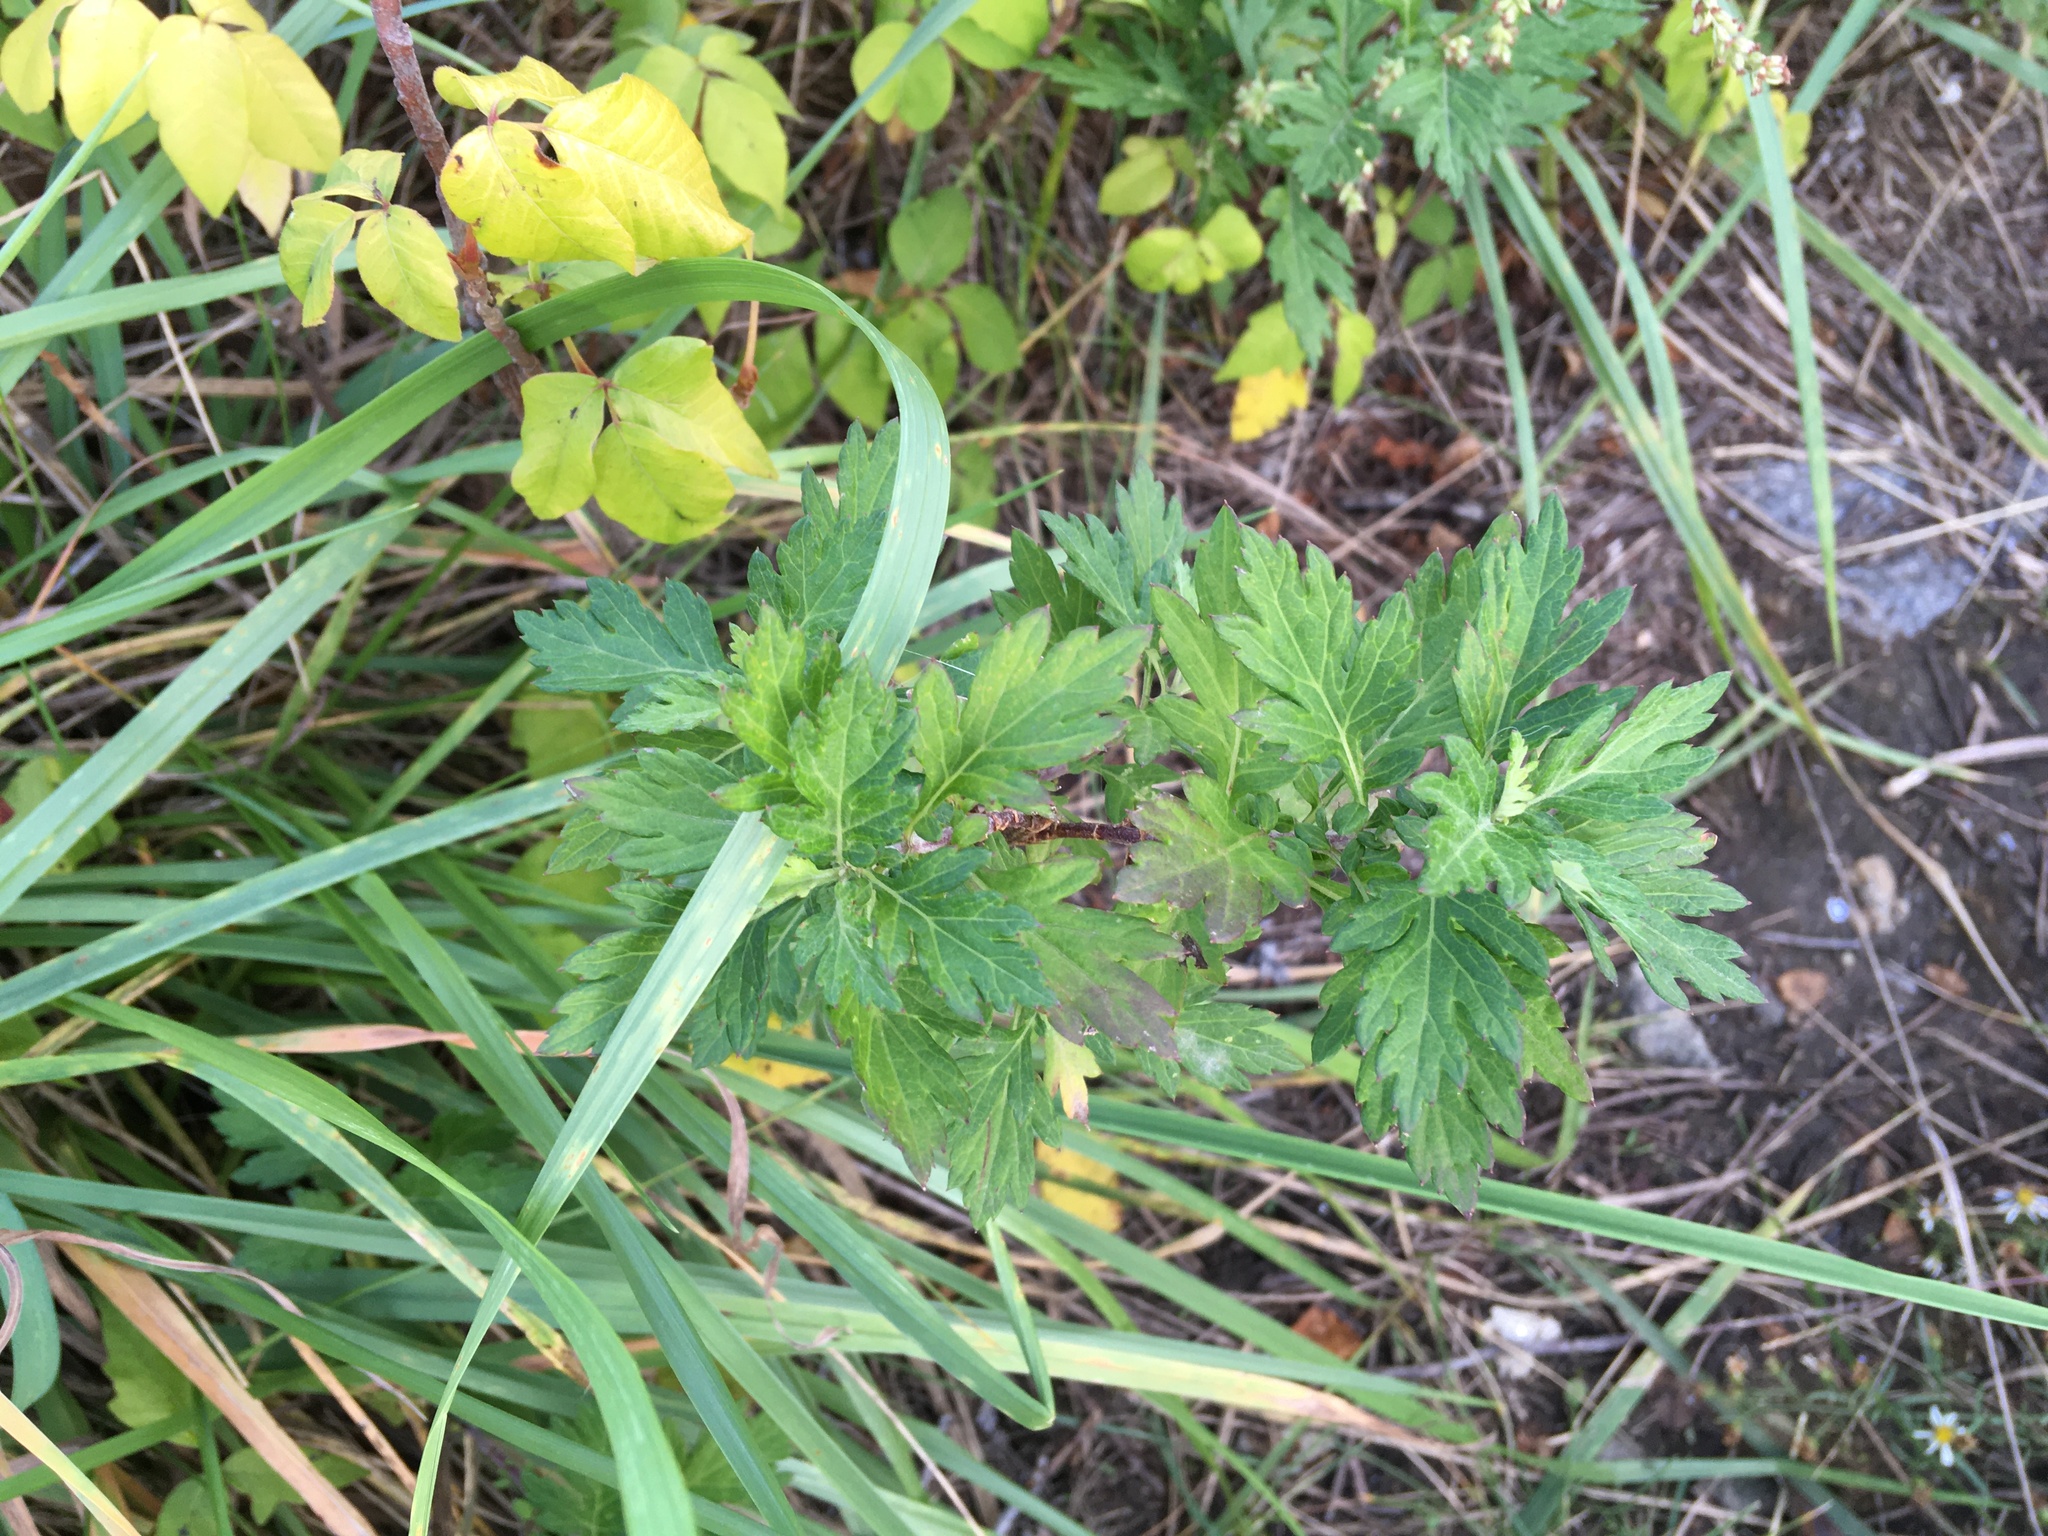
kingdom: Plantae
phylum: Tracheophyta
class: Magnoliopsida
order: Asterales
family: Asteraceae
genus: Artemisia
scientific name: Artemisia vulgaris
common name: Mugwort
